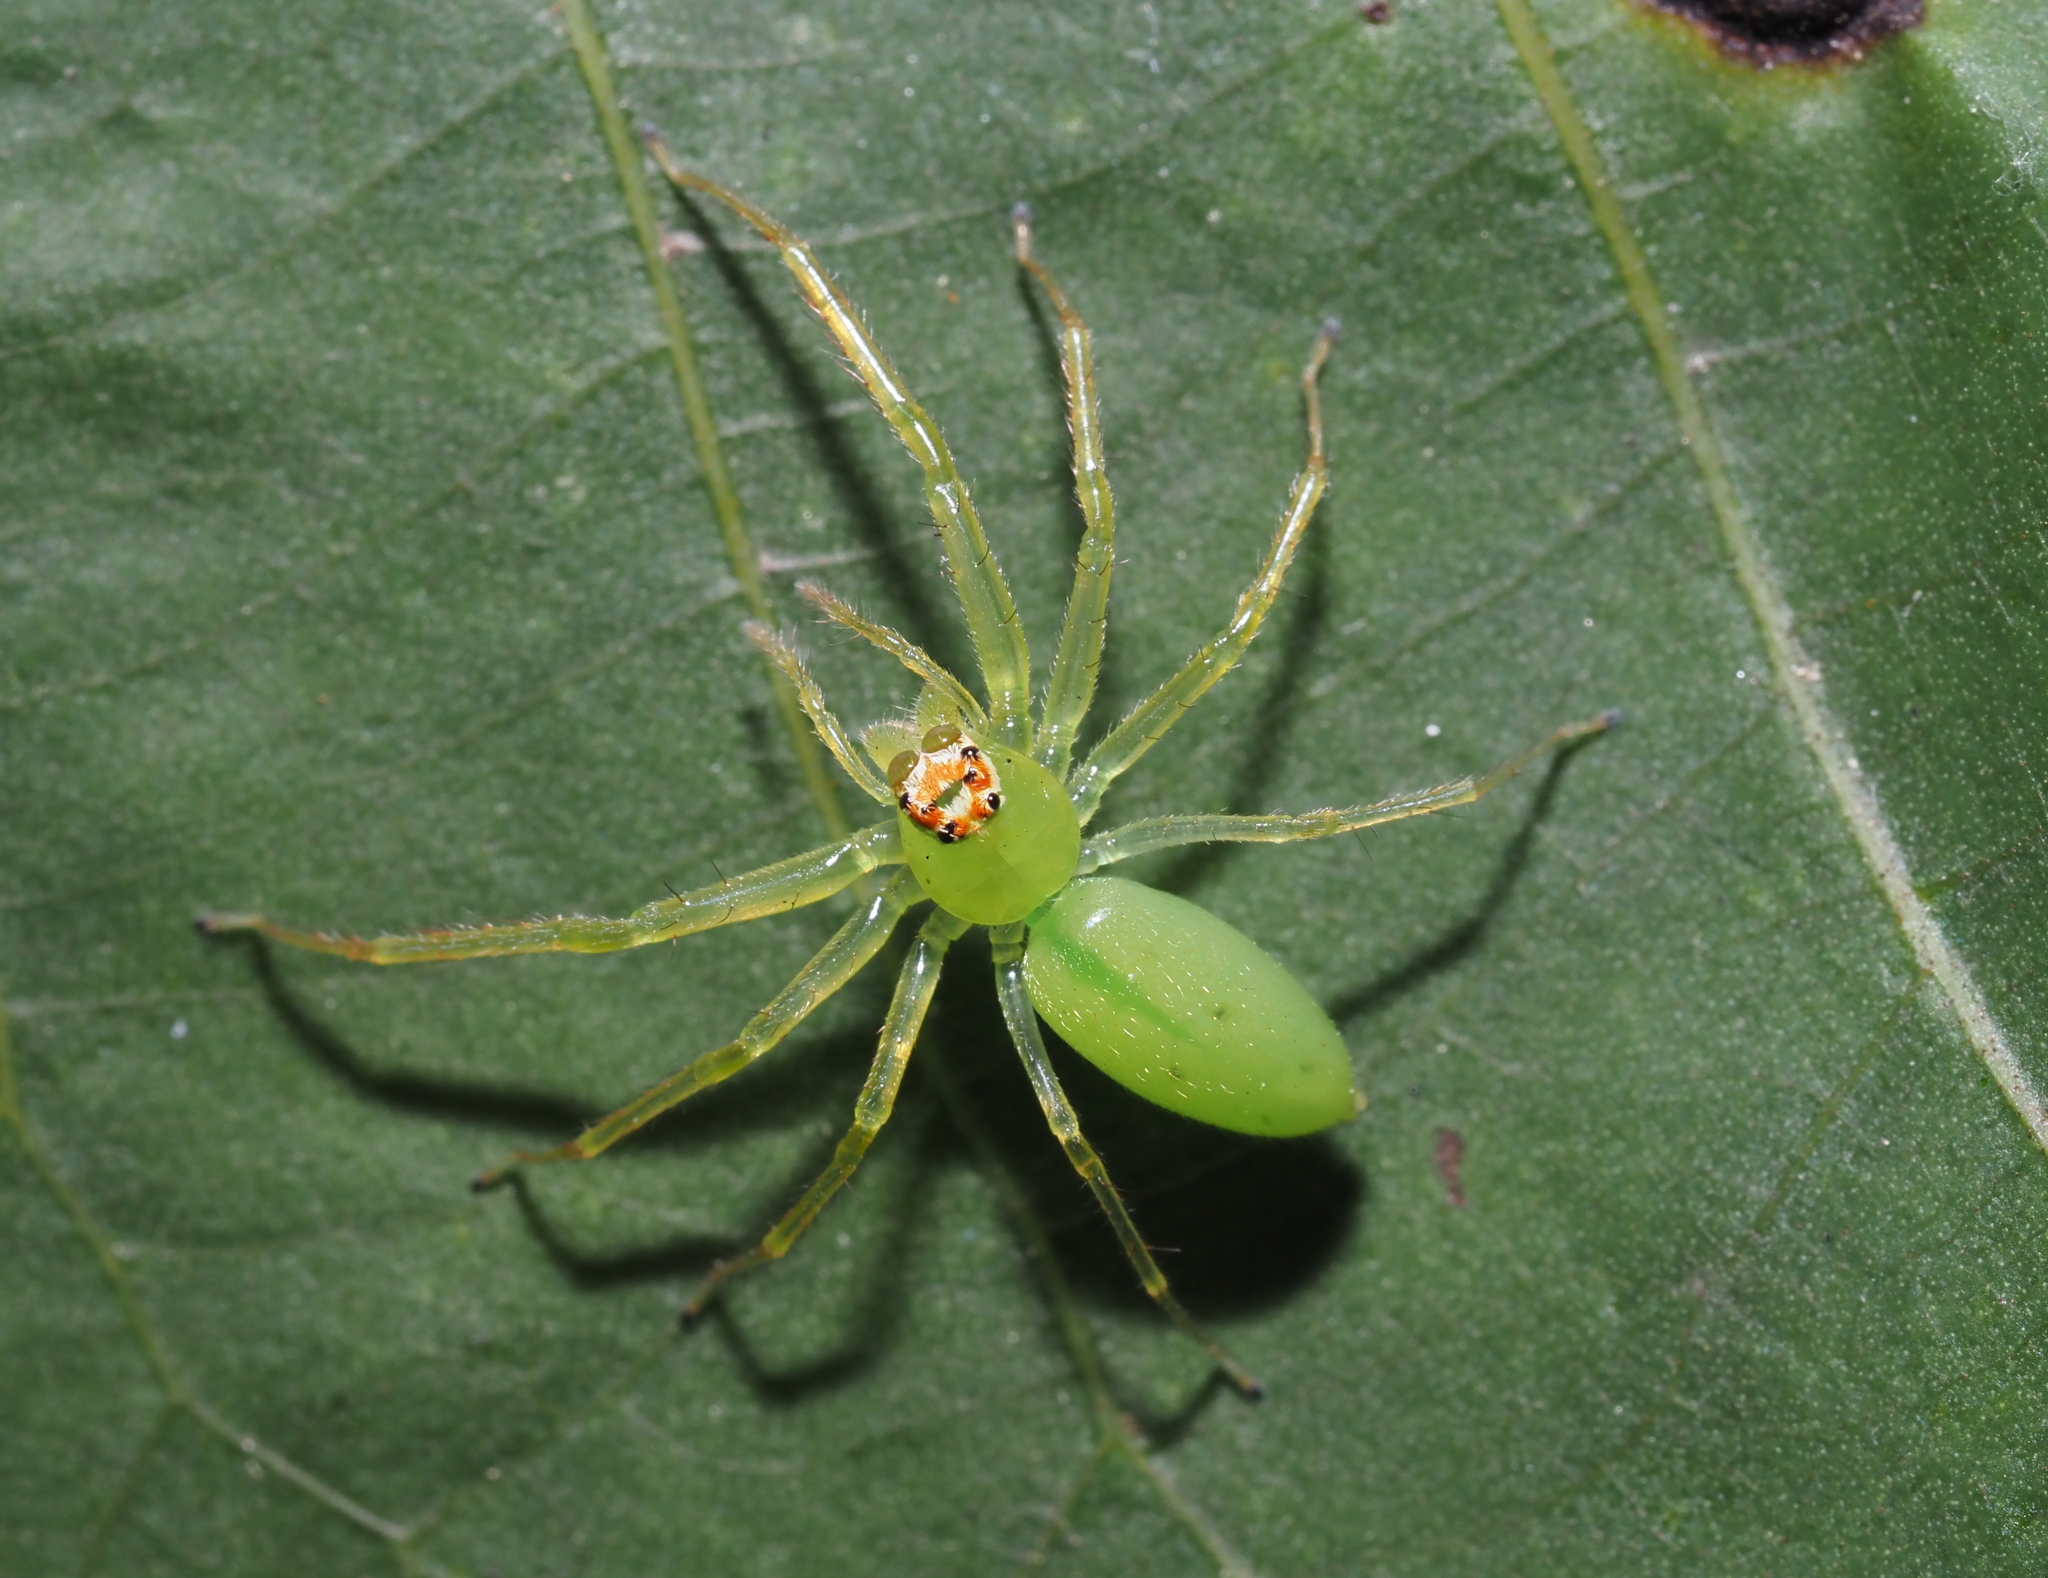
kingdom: Animalia
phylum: Arthropoda
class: Arachnida
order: Araneae
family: Salticidae
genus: Lyssomanes
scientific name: Lyssomanes viridis
